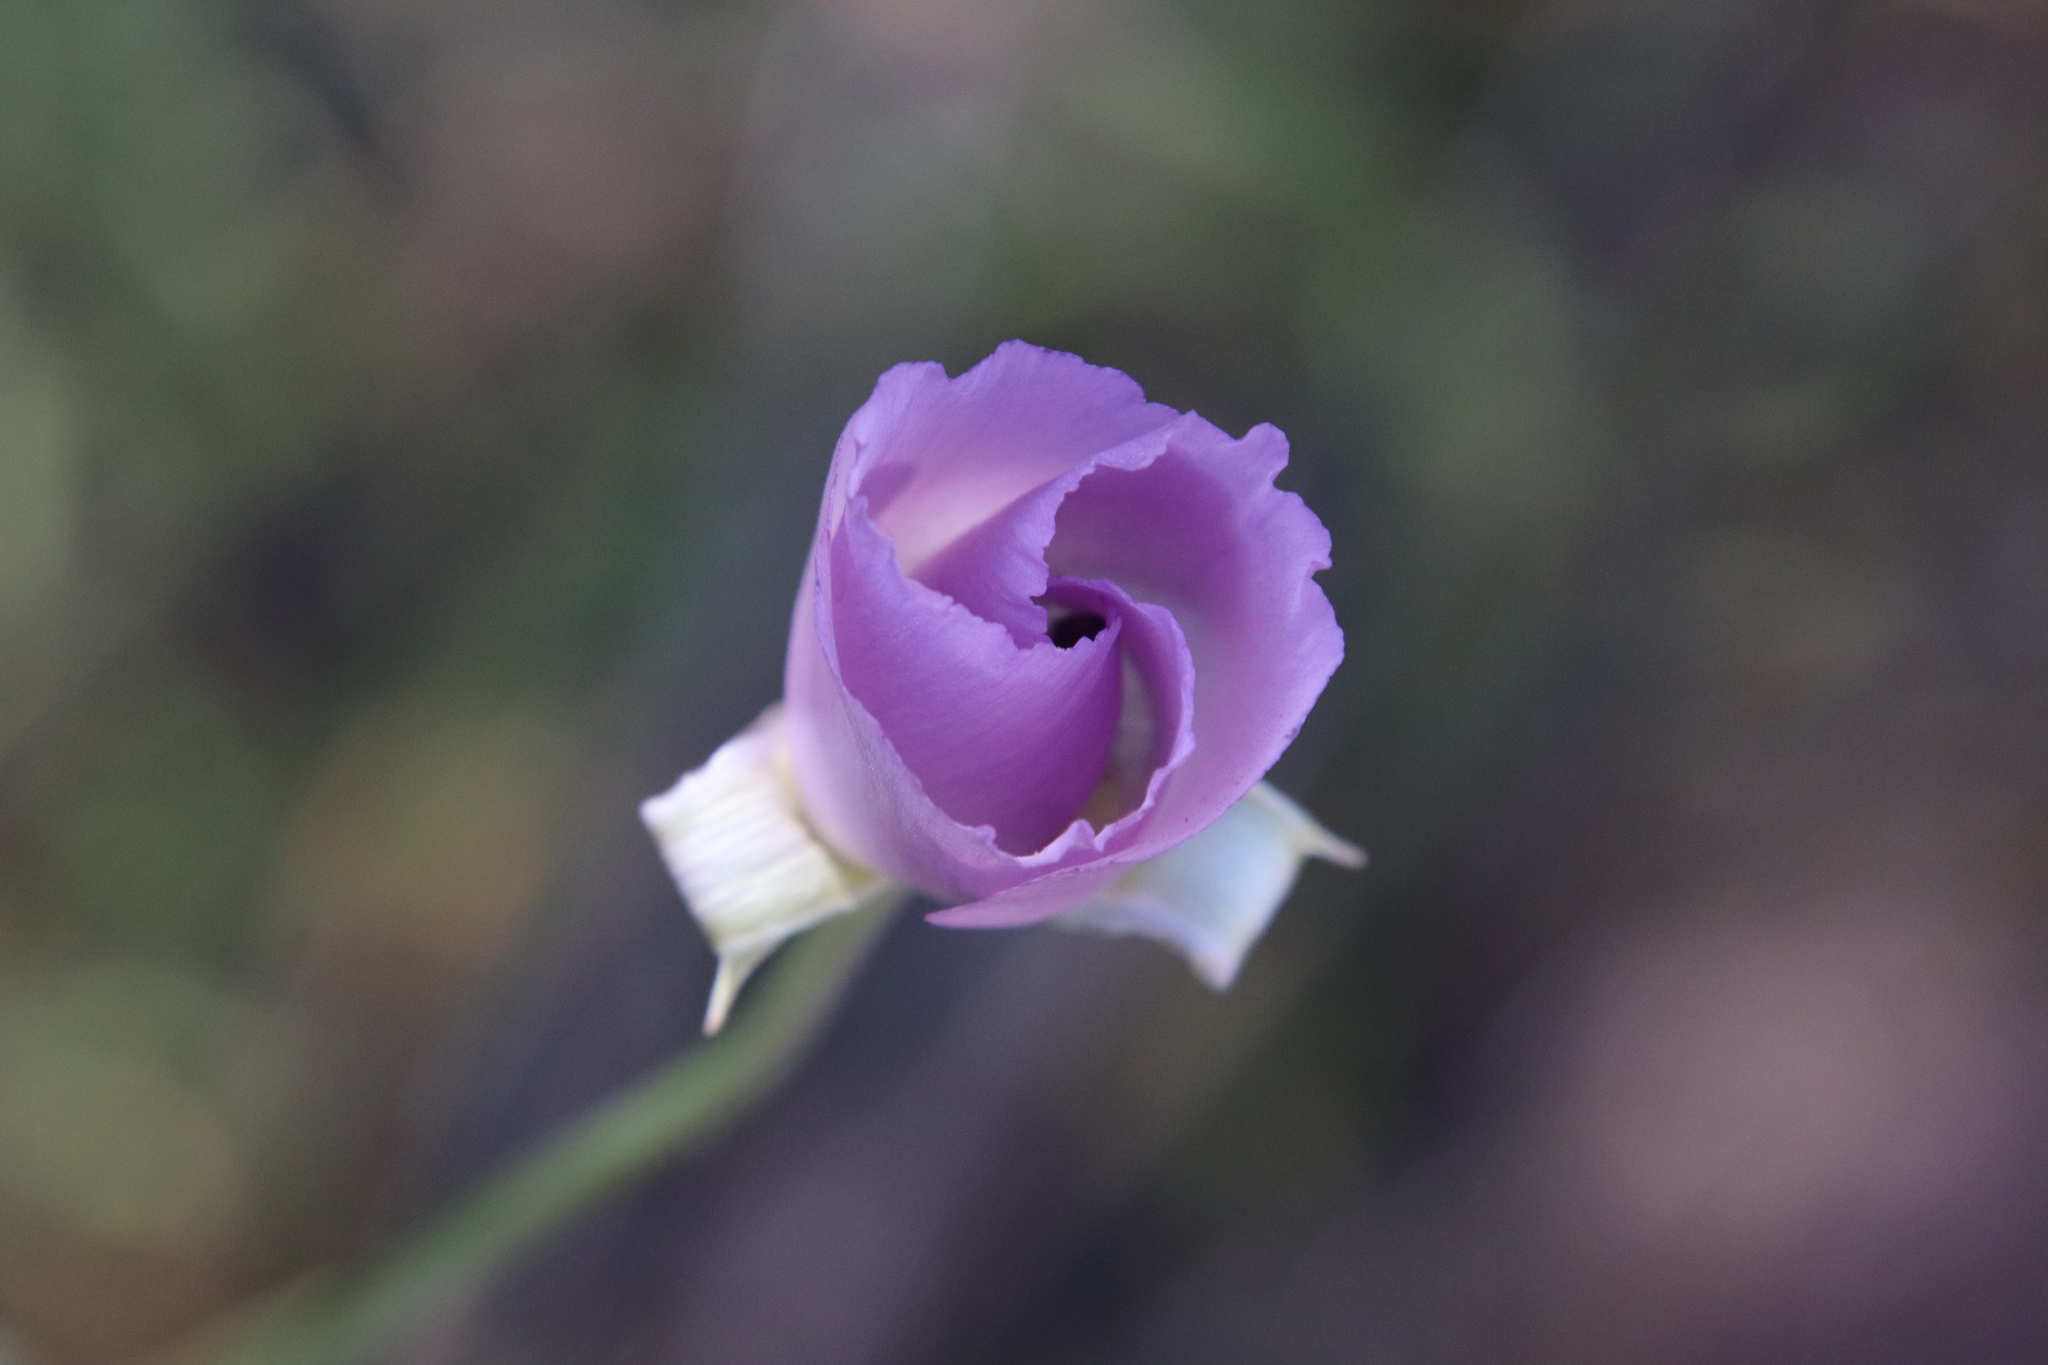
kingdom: Plantae
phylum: Tracheophyta
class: Liliopsida
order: Liliales
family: Liliaceae
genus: Calochortus
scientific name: Calochortus splendens
